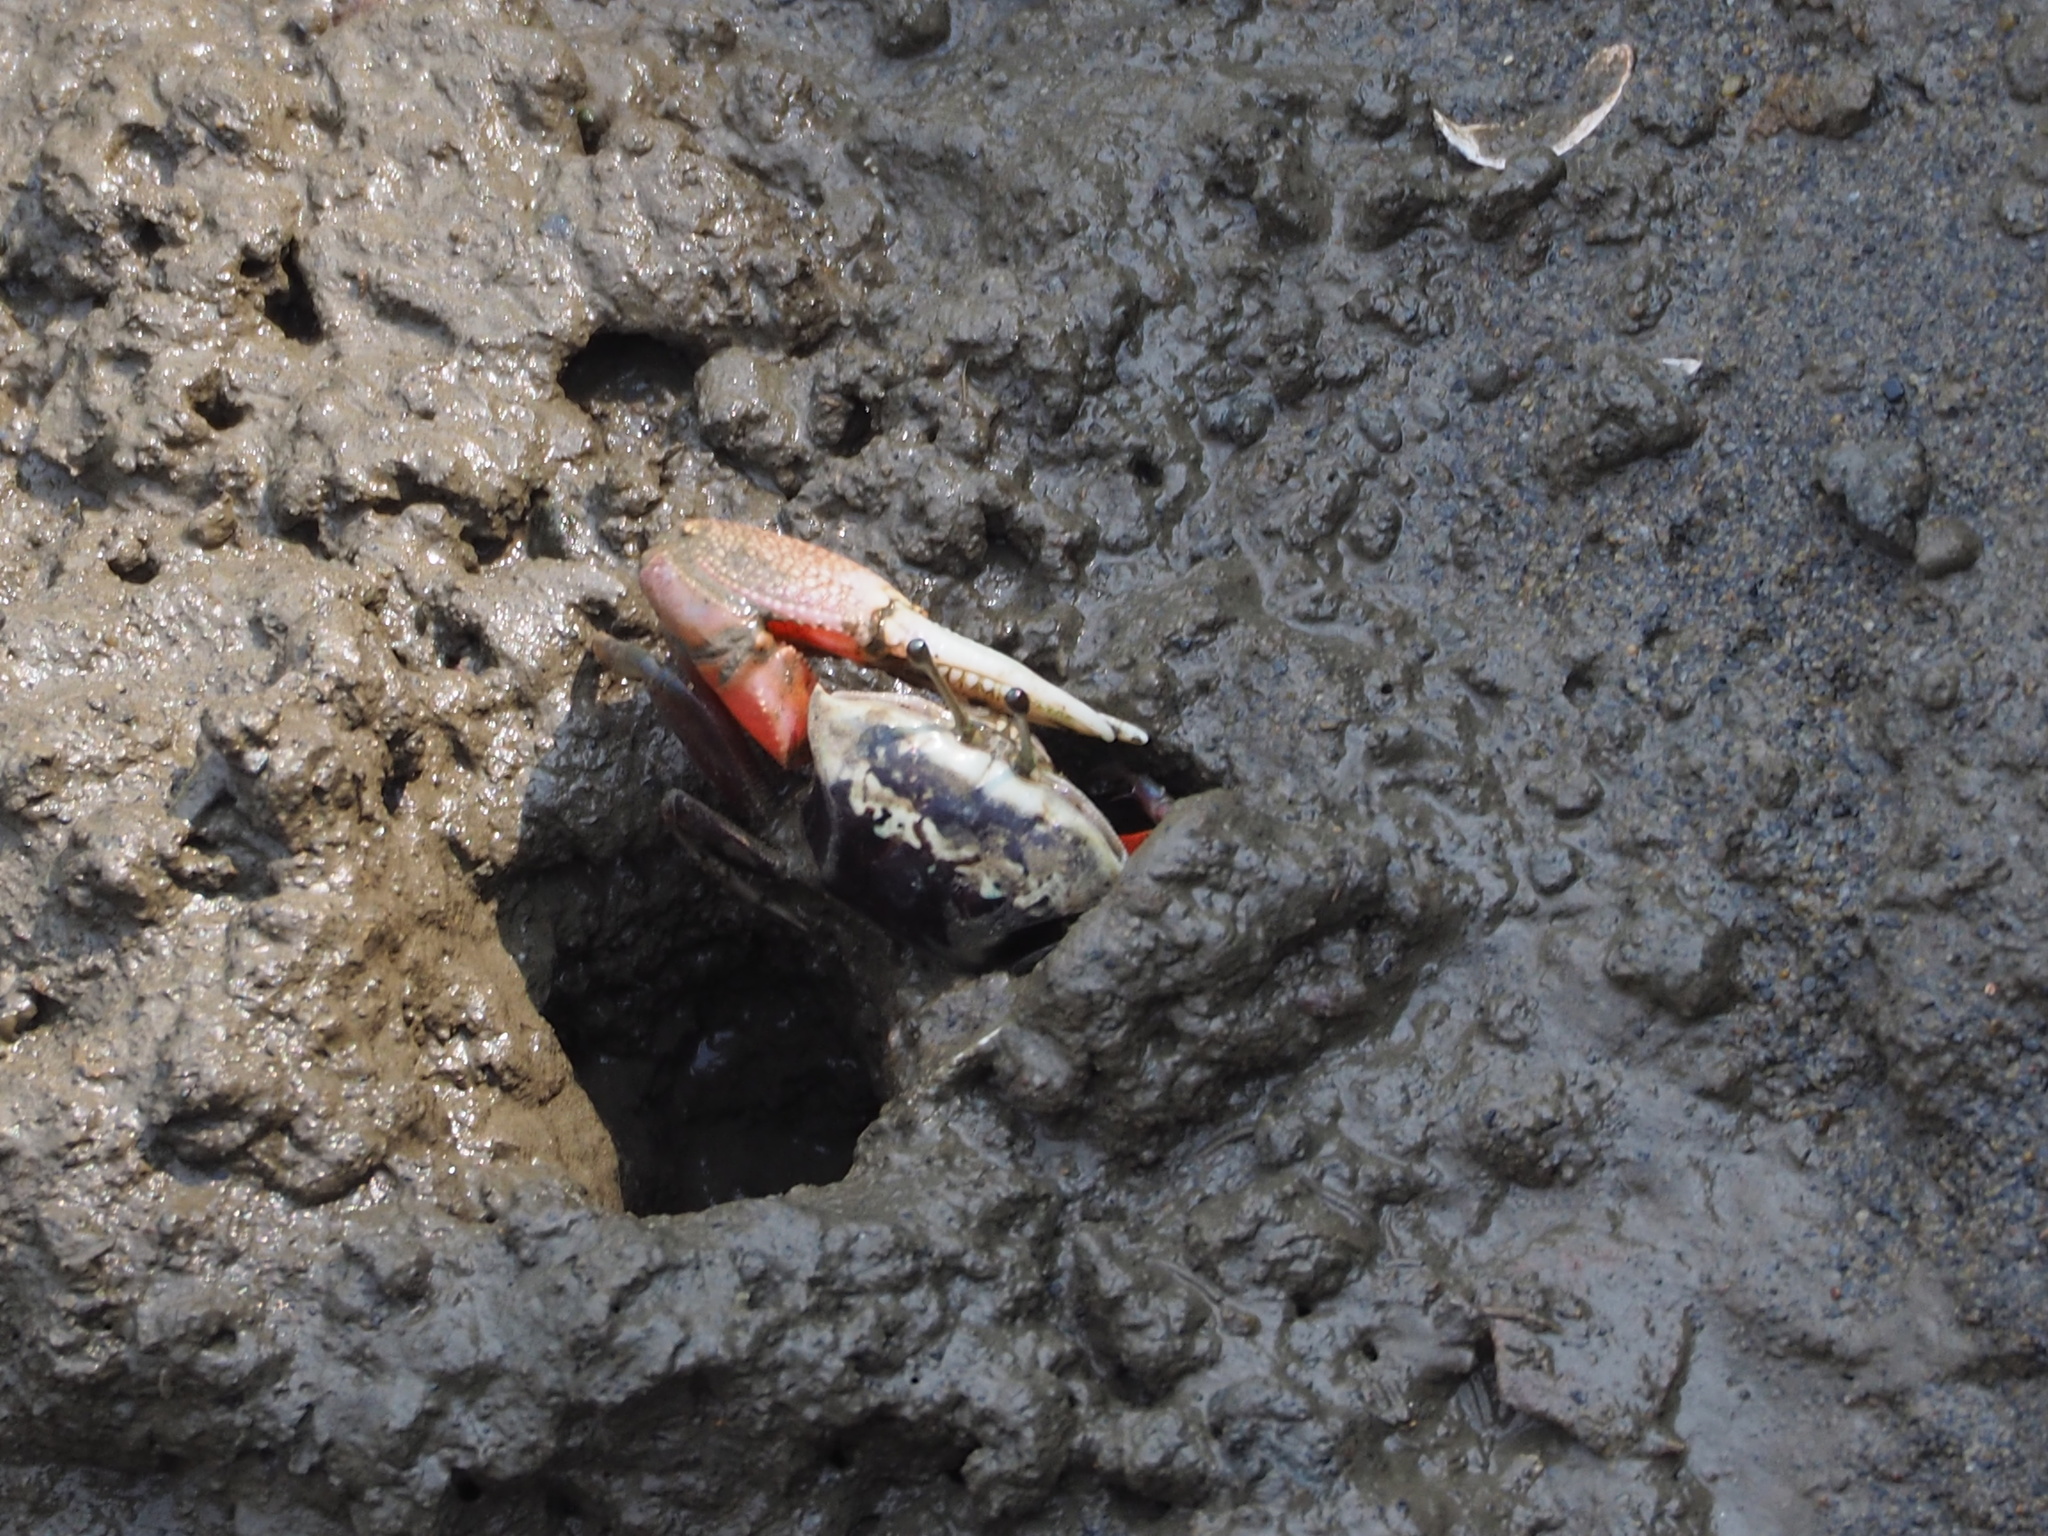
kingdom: Animalia
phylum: Arthropoda
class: Malacostraca
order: Decapoda
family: Ocypodidae
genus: Tubuca
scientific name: Tubuca arcuata
